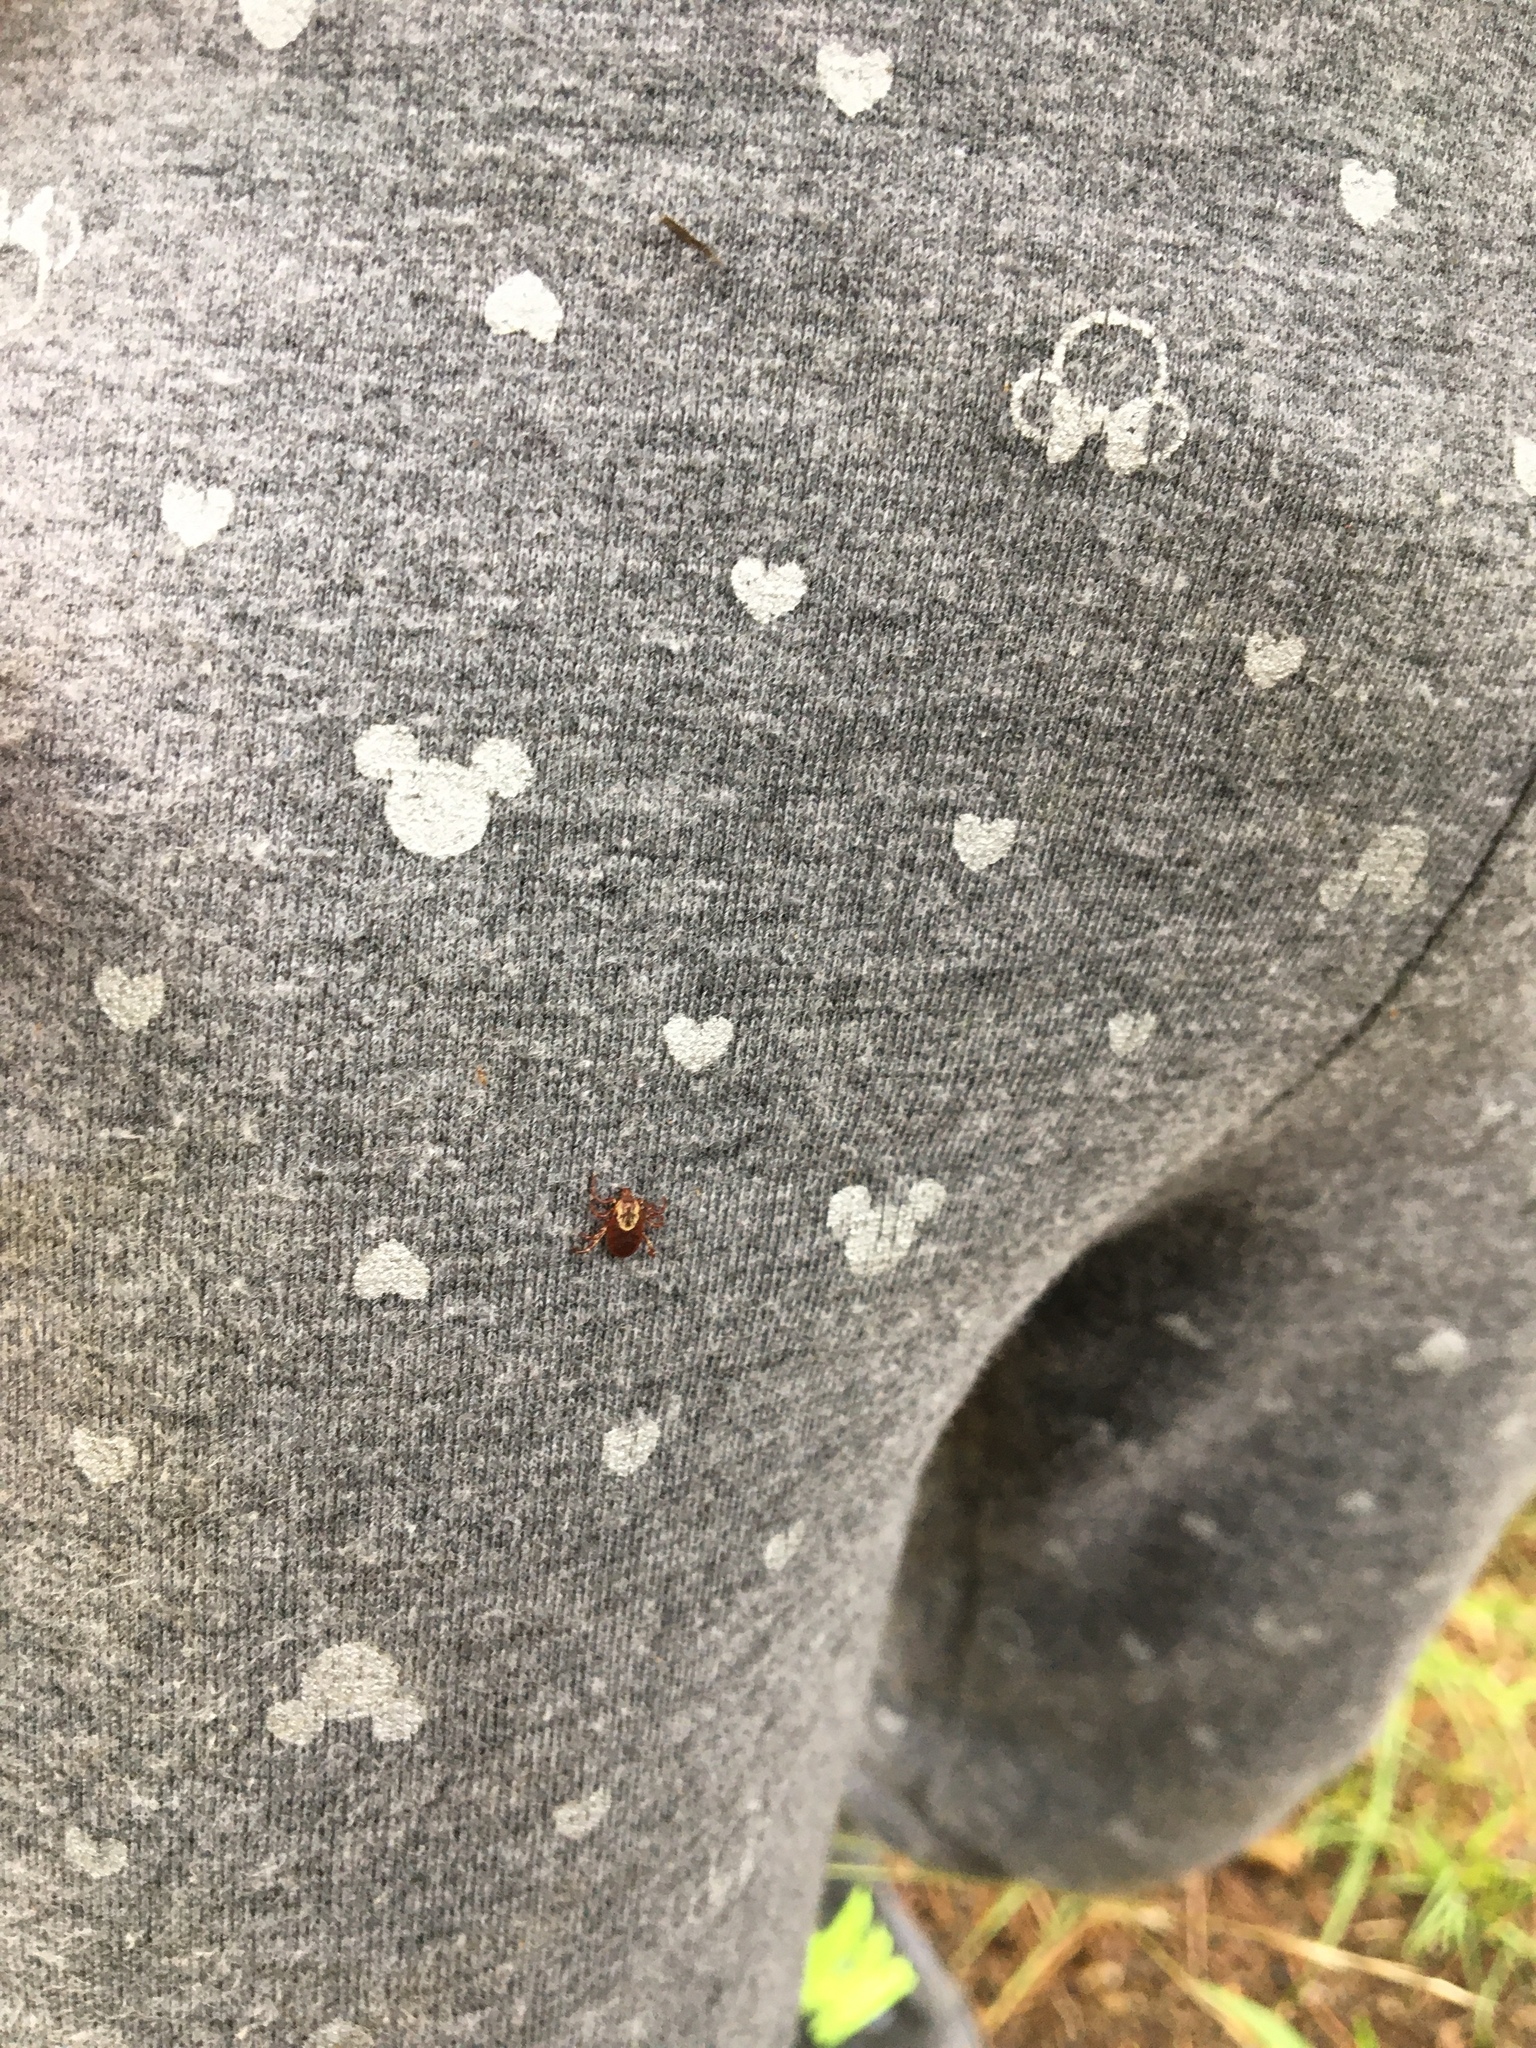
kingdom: Animalia
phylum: Arthropoda
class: Arachnida
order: Ixodida
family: Ixodidae
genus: Dermacentor
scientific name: Dermacentor variabilis
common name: American dog tick
